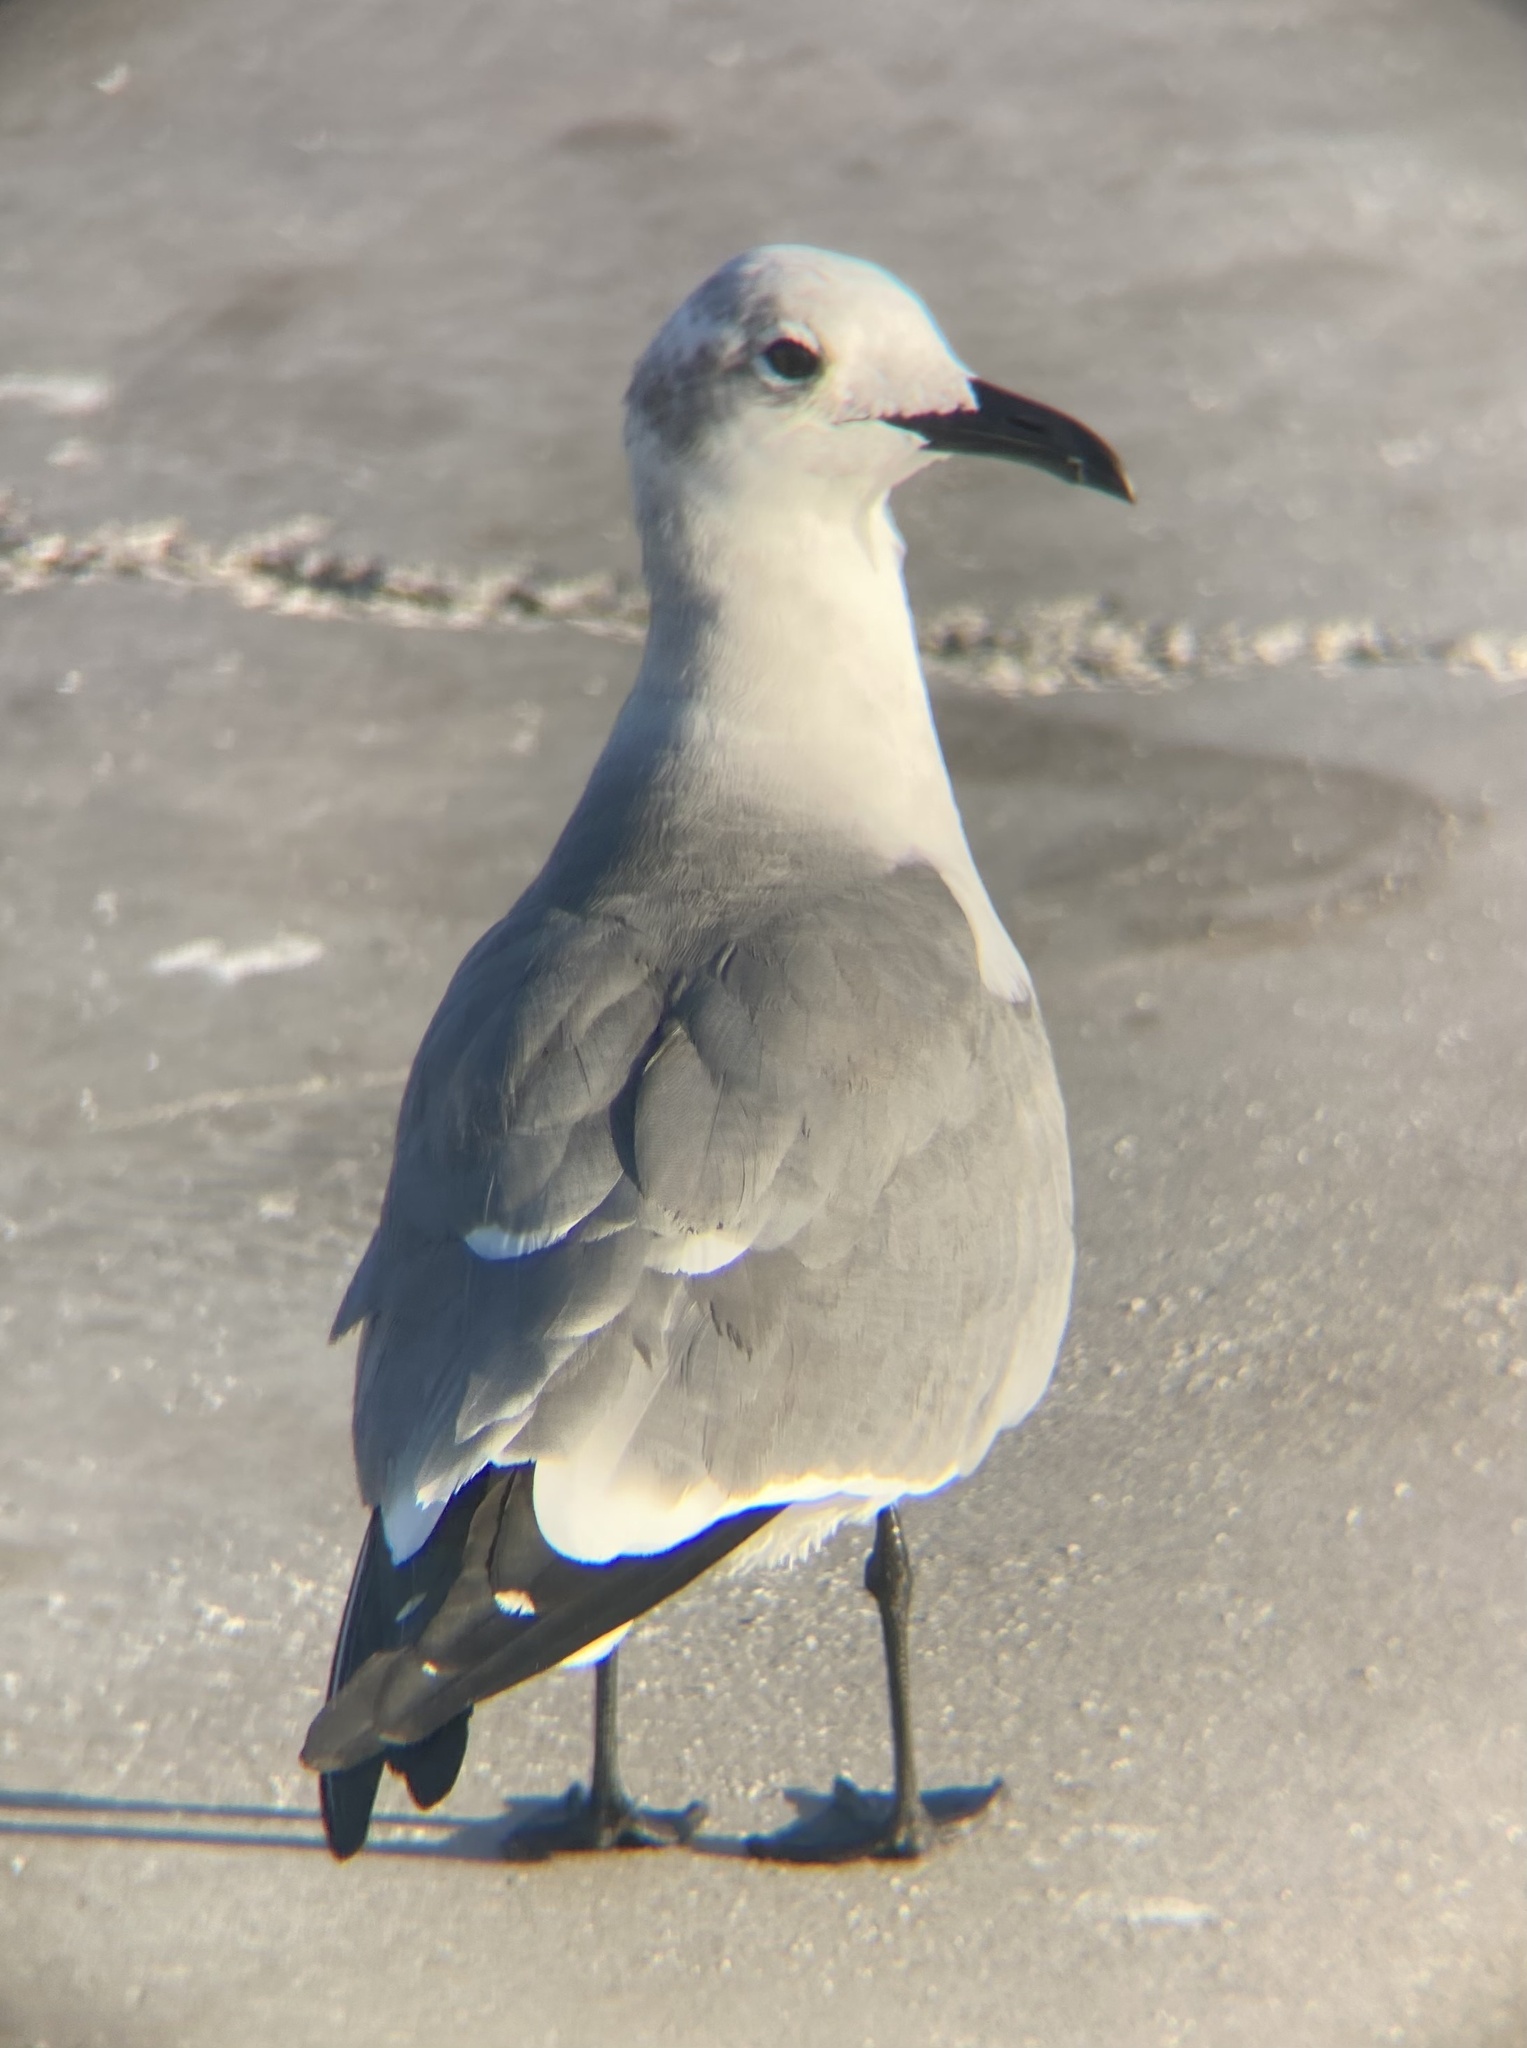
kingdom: Animalia
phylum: Chordata
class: Aves
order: Charadriiformes
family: Laridae
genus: Leucophaeus
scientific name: Leucophaeus atricilla
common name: Laughing gull
